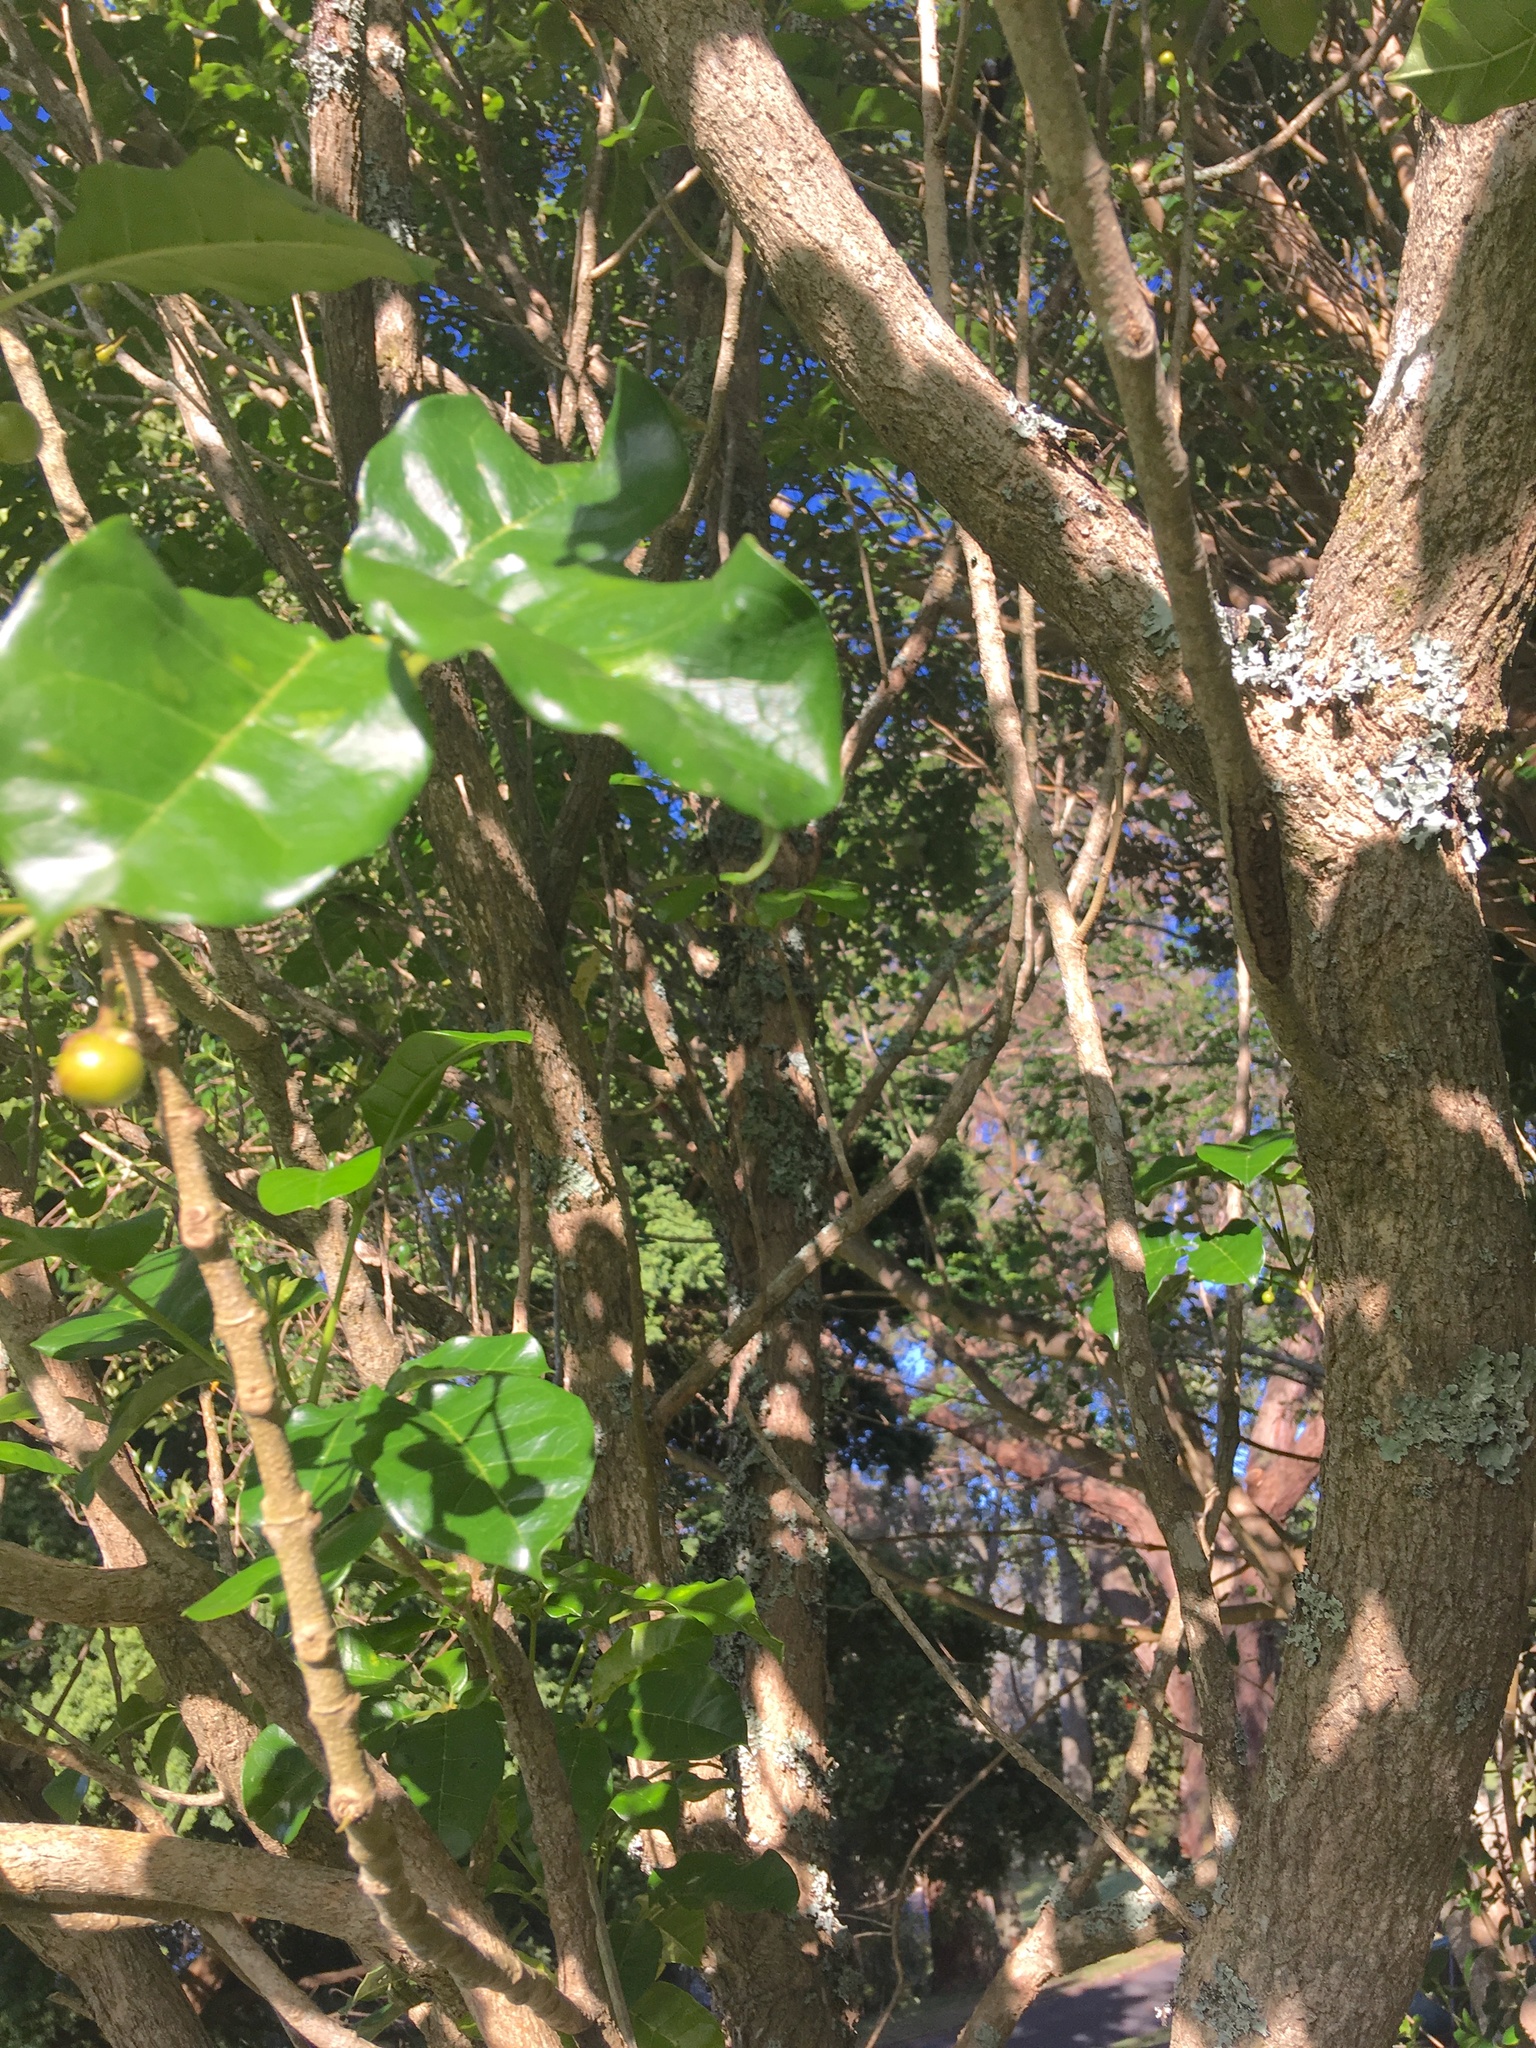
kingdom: Plantae
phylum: Tracheophyta
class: Magnoliopsida
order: Lamiales
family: Lamiaceae
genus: Vitex
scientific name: Vitex lucens
